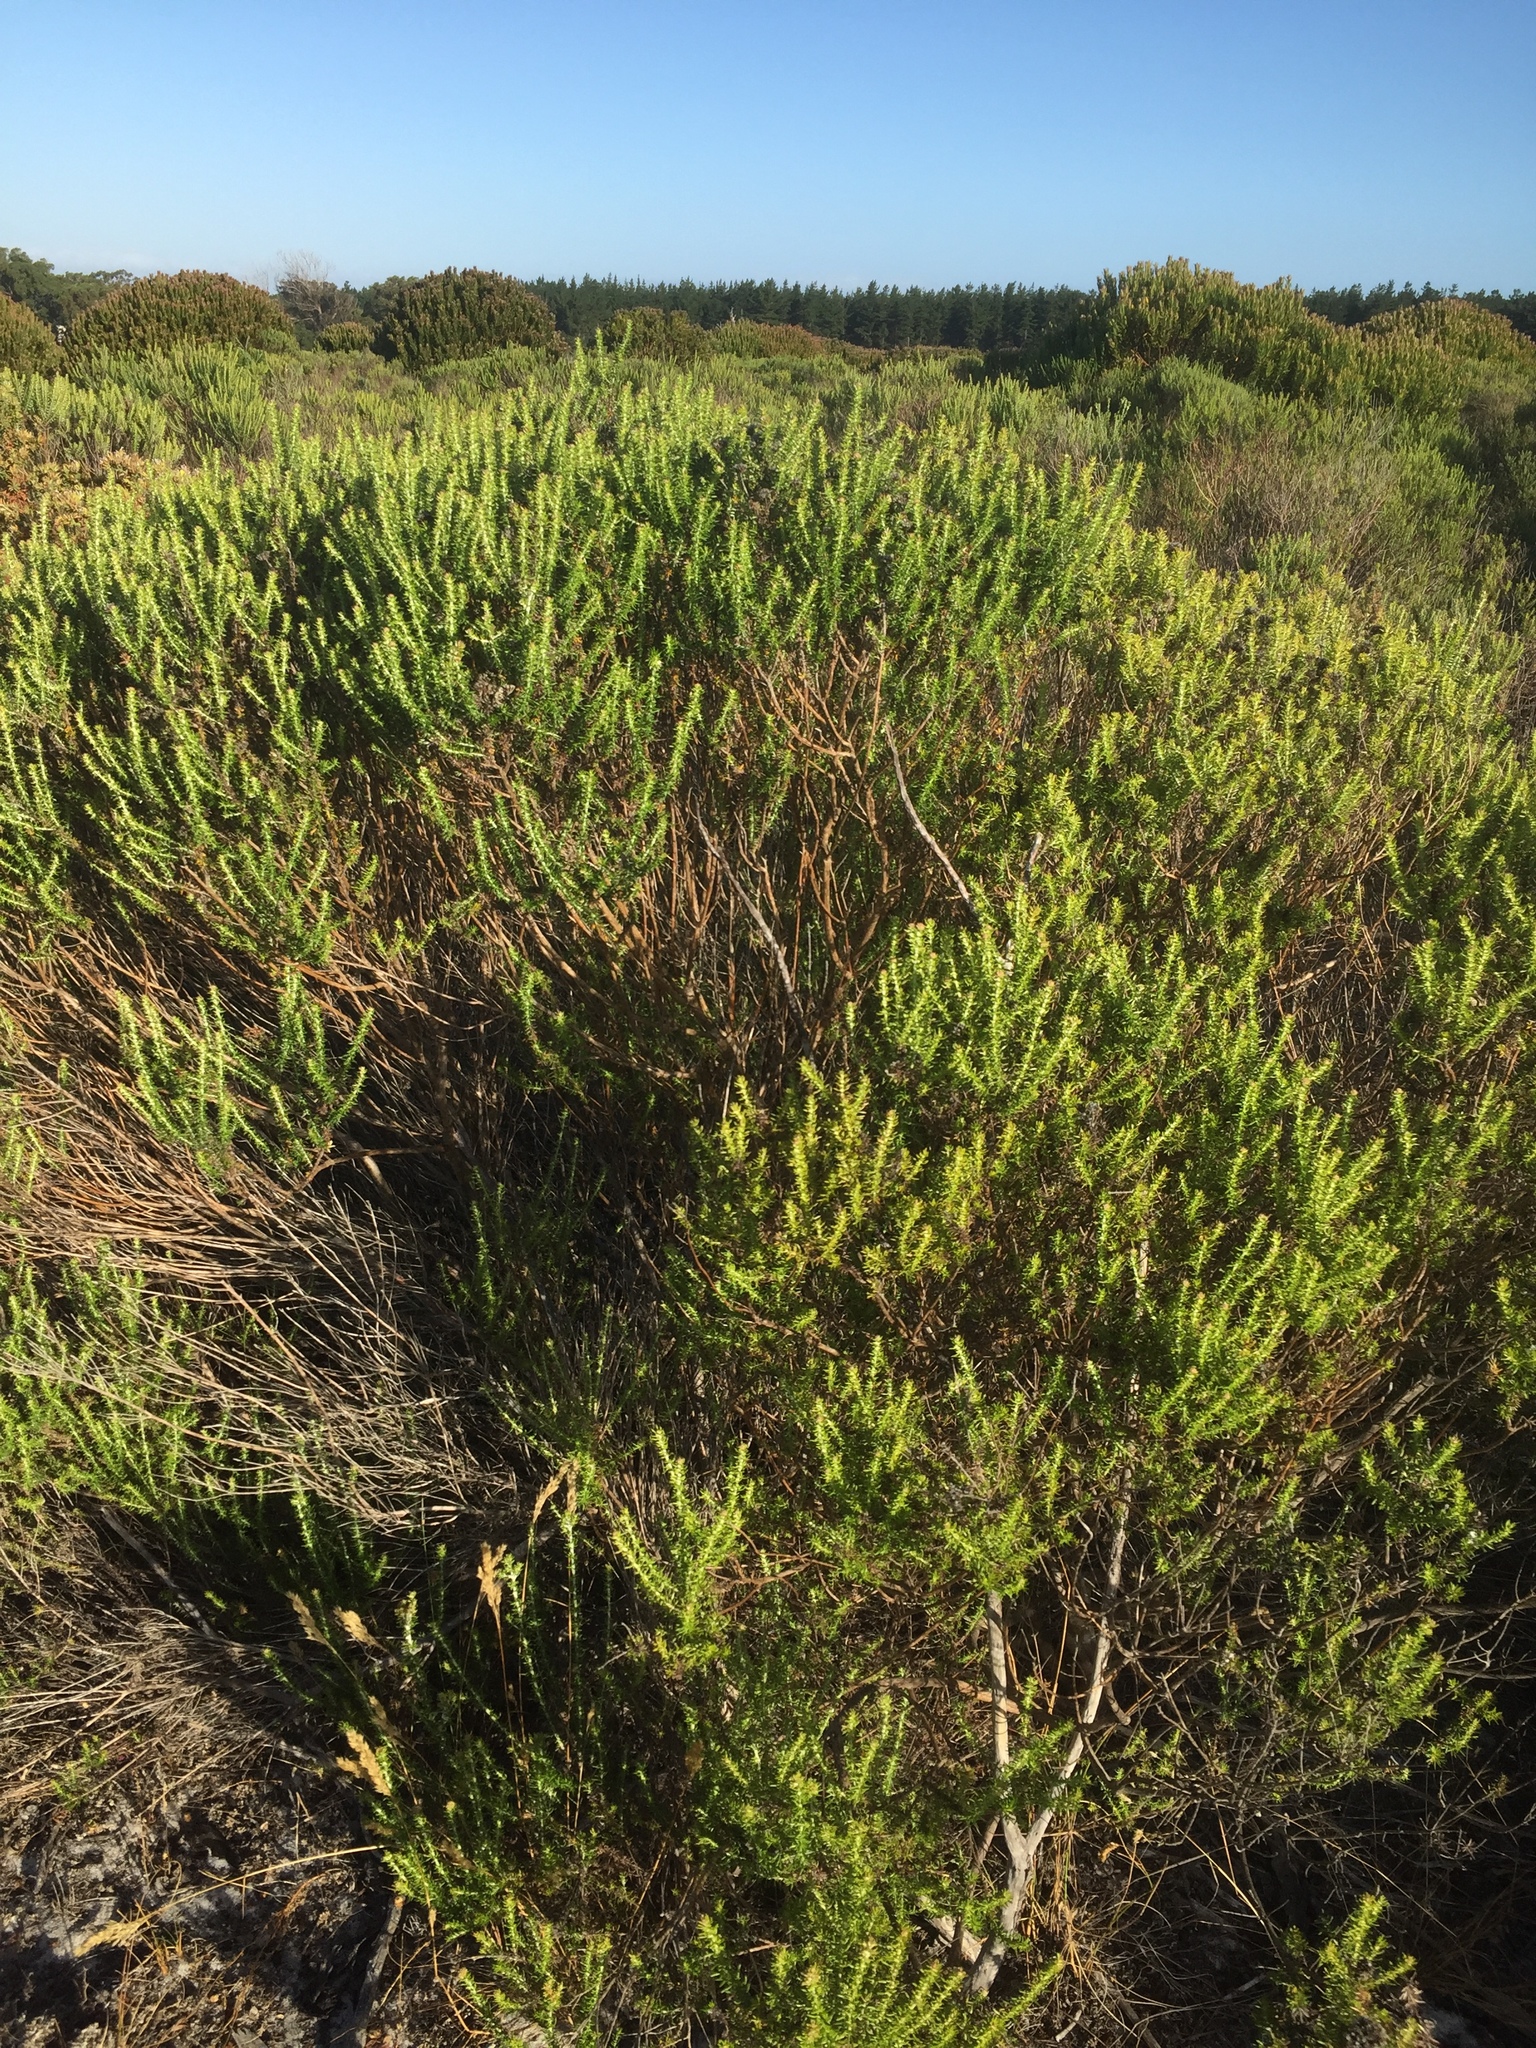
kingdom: Plantae
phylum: Tracheophyta
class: Magnoliopsida
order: Asterales
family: Asteraceae
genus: Metalasia
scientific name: Metalasia densa
